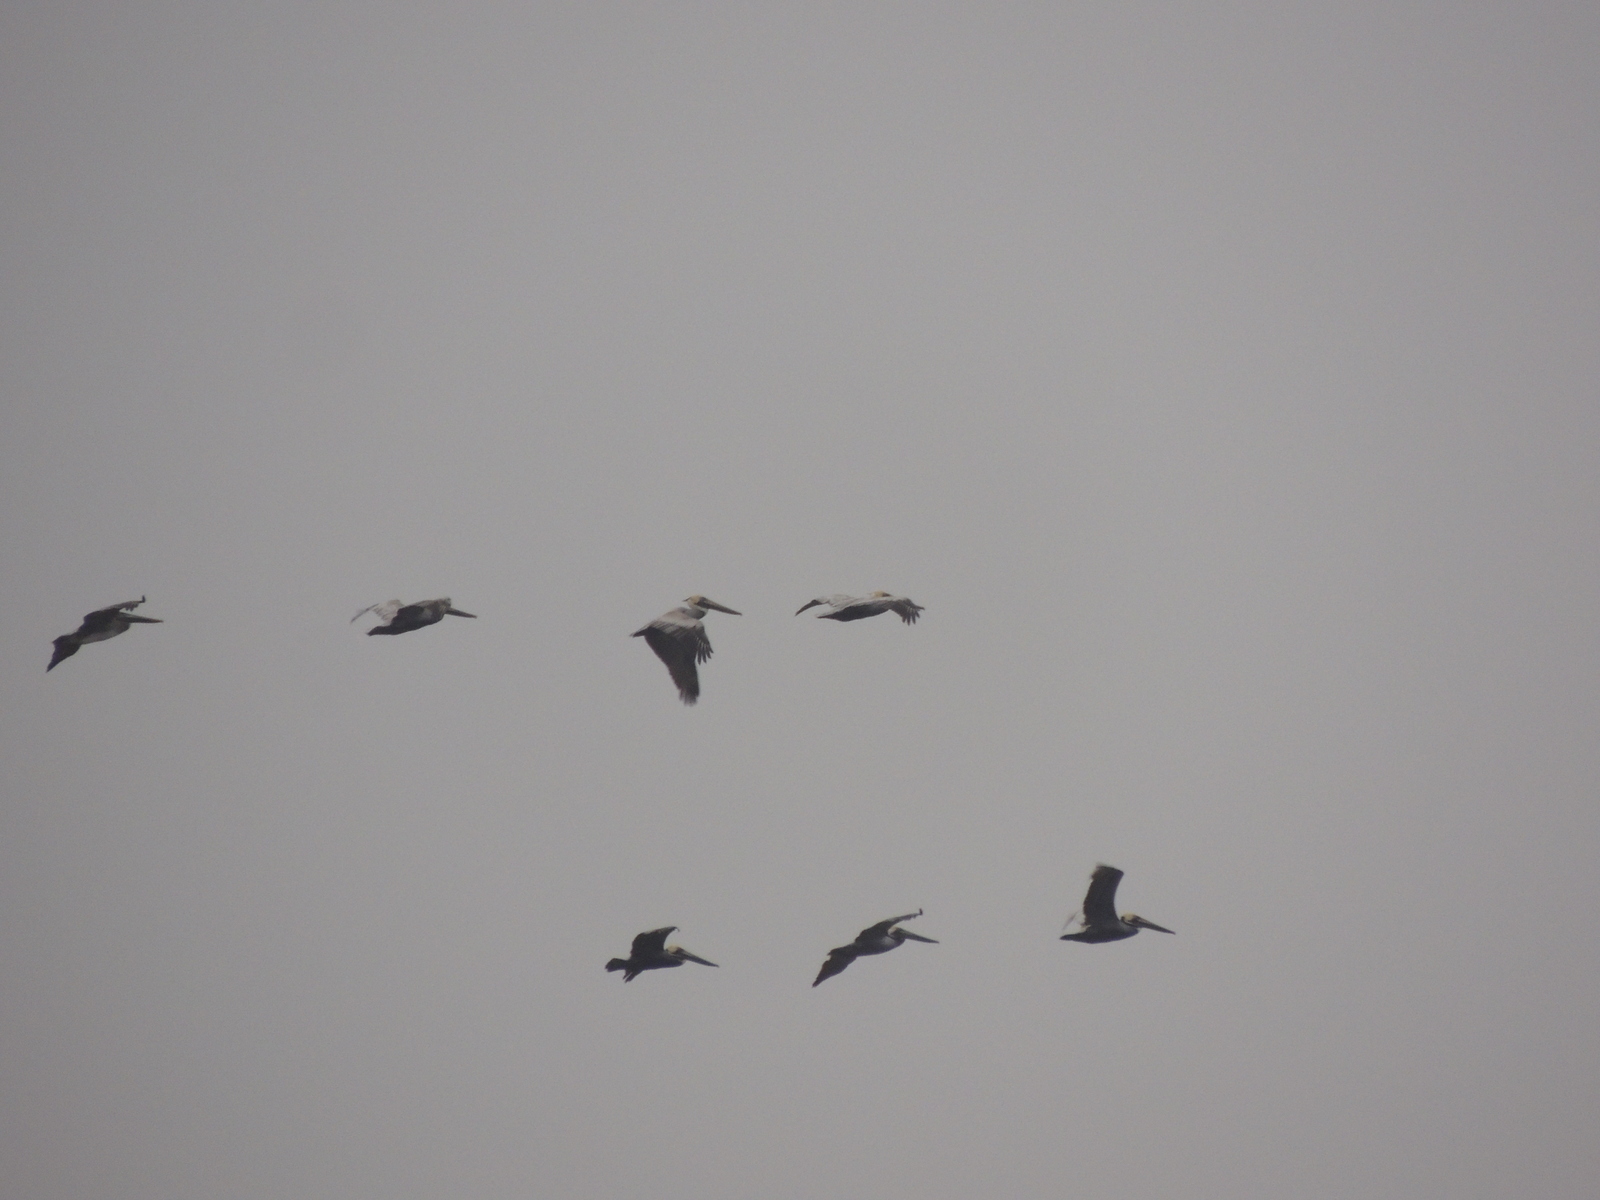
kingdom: Animalia
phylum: Chordata
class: Aves
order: Pelecaniformes
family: Pelecanidae
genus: Pelecanus
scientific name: Pelecanus occidentalis
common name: Brown pelican
